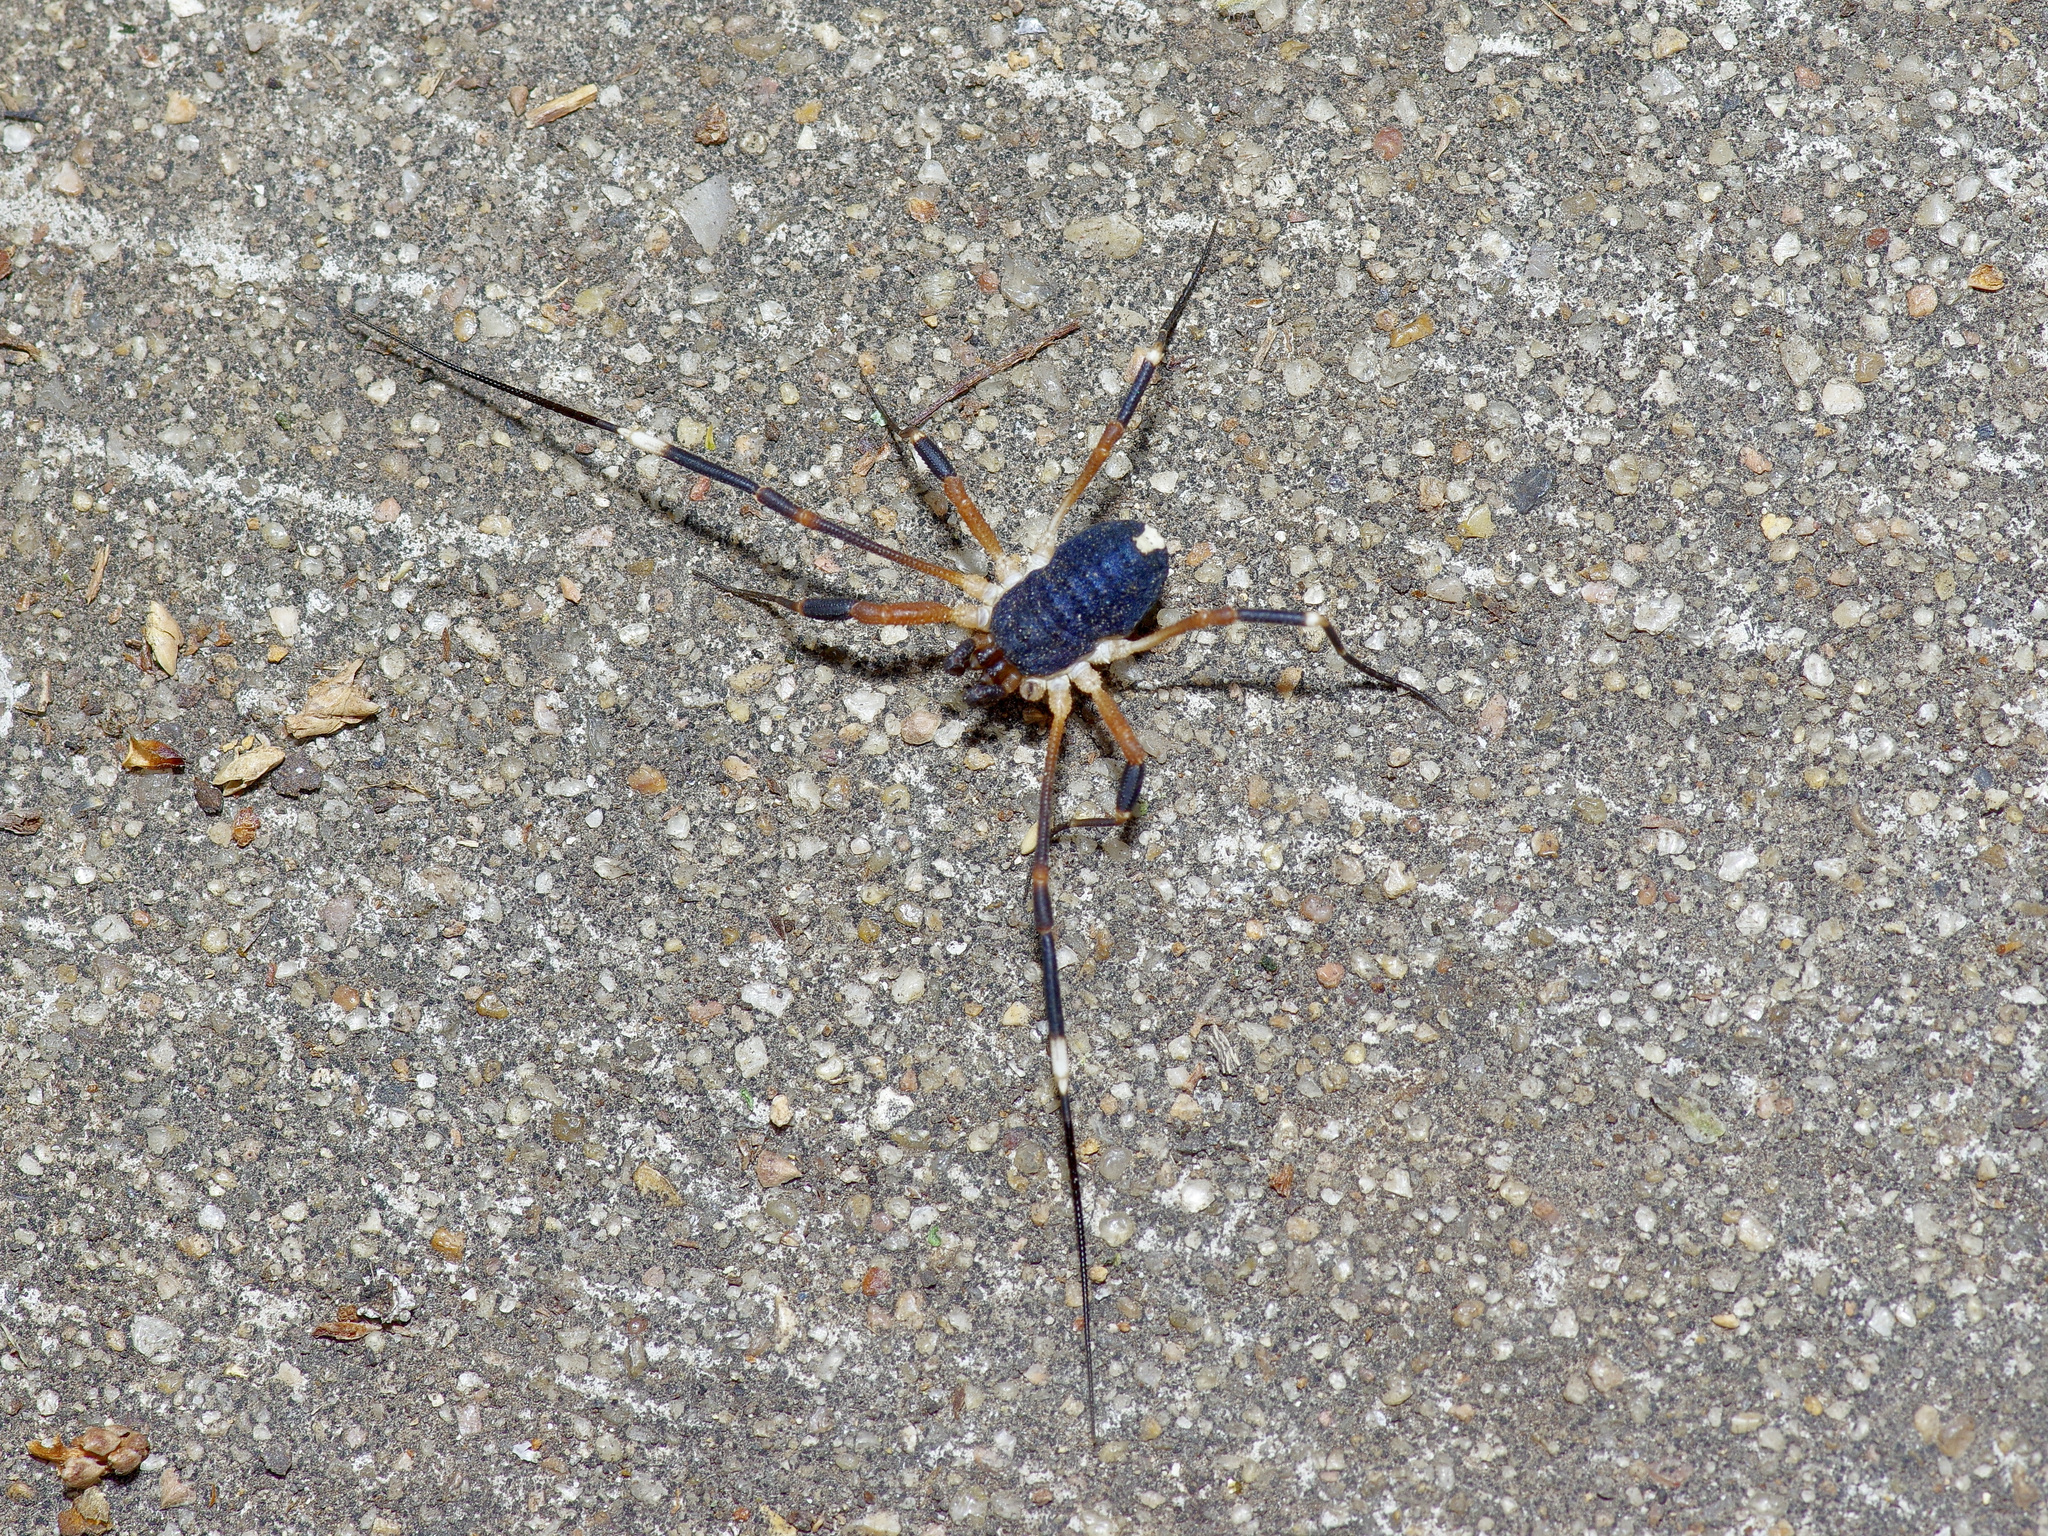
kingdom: Animalia
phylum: Arthropoda
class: Arachnida
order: Opiliones
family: Globipedidae
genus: Dalquestia
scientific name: Dalquestia formosa
